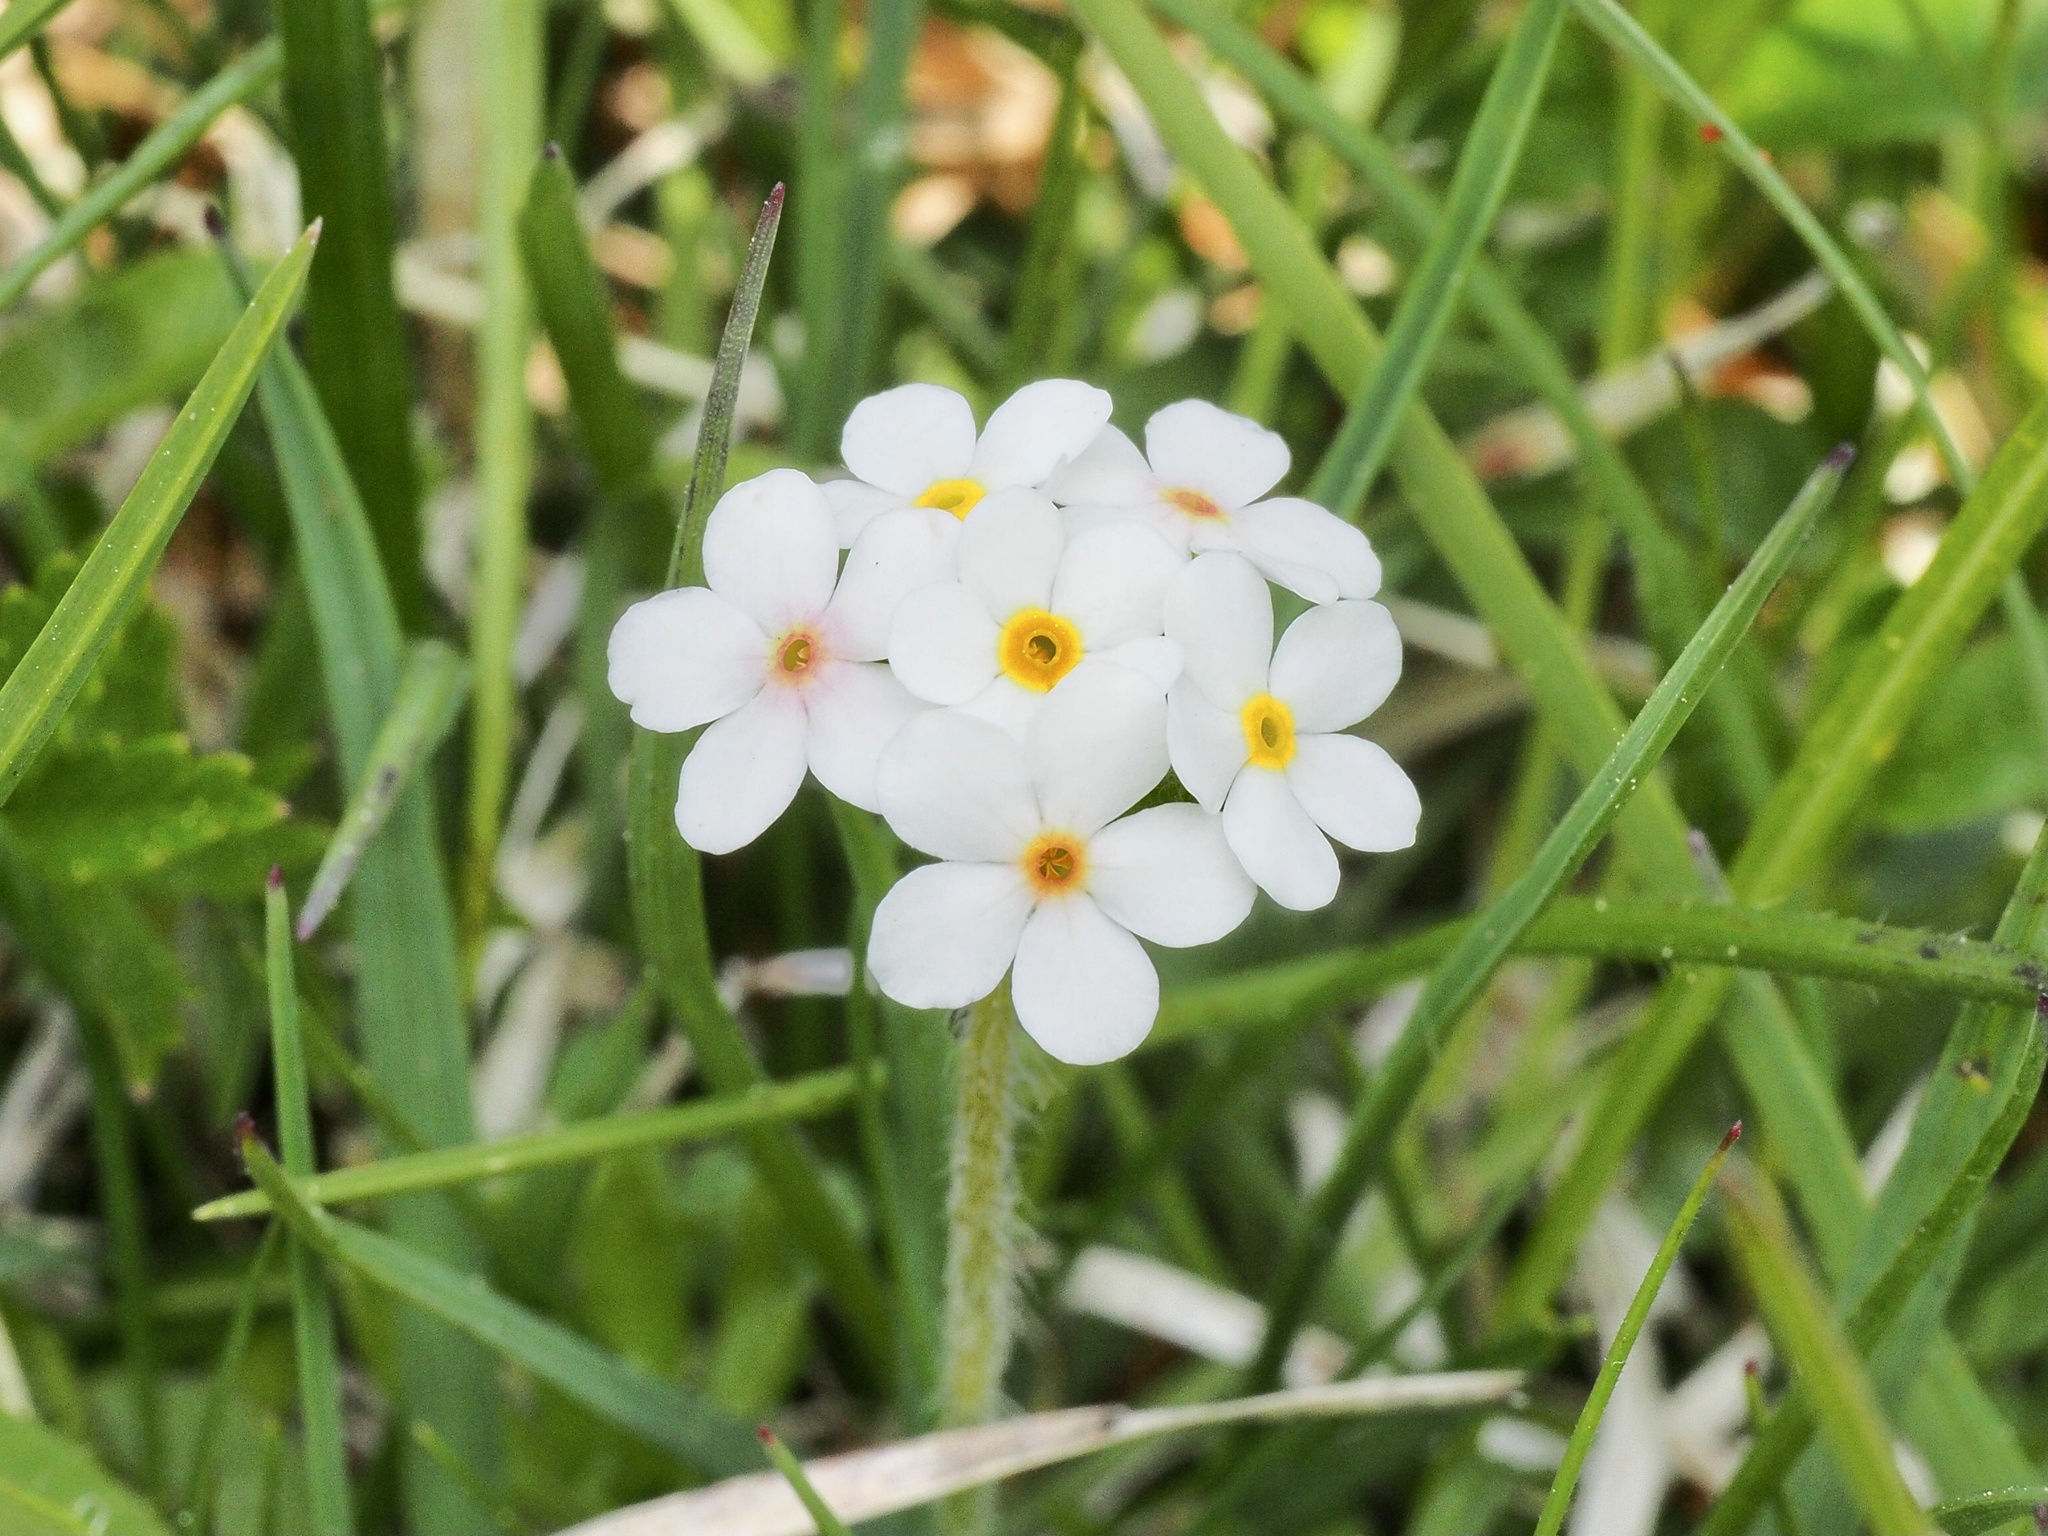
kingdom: Plantae
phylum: Tracheophyta
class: Magnoliopsida
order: Ericales
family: Primulaceae
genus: Androsace
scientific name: Androsace chamaejasme
